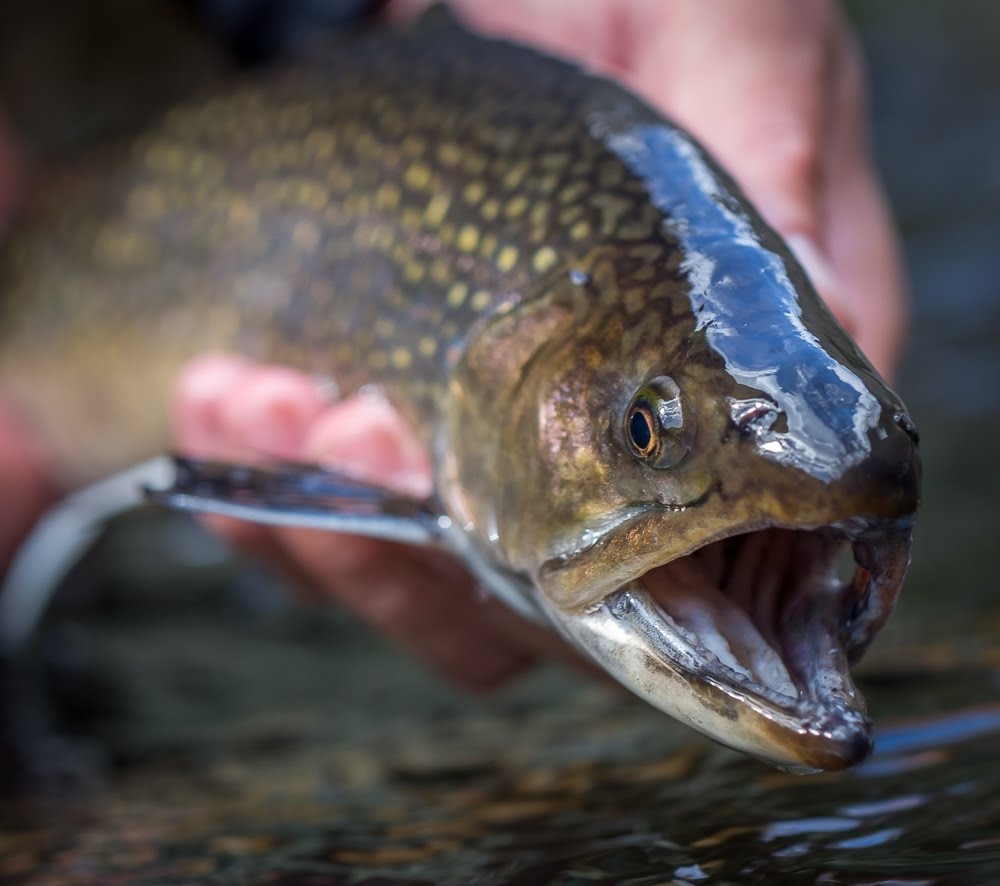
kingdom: Animalia
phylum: Chordata
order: Salmoniformes
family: Salmonidae
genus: Salvelinus
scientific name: Salvelinus fontinalis
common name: Brook trout
